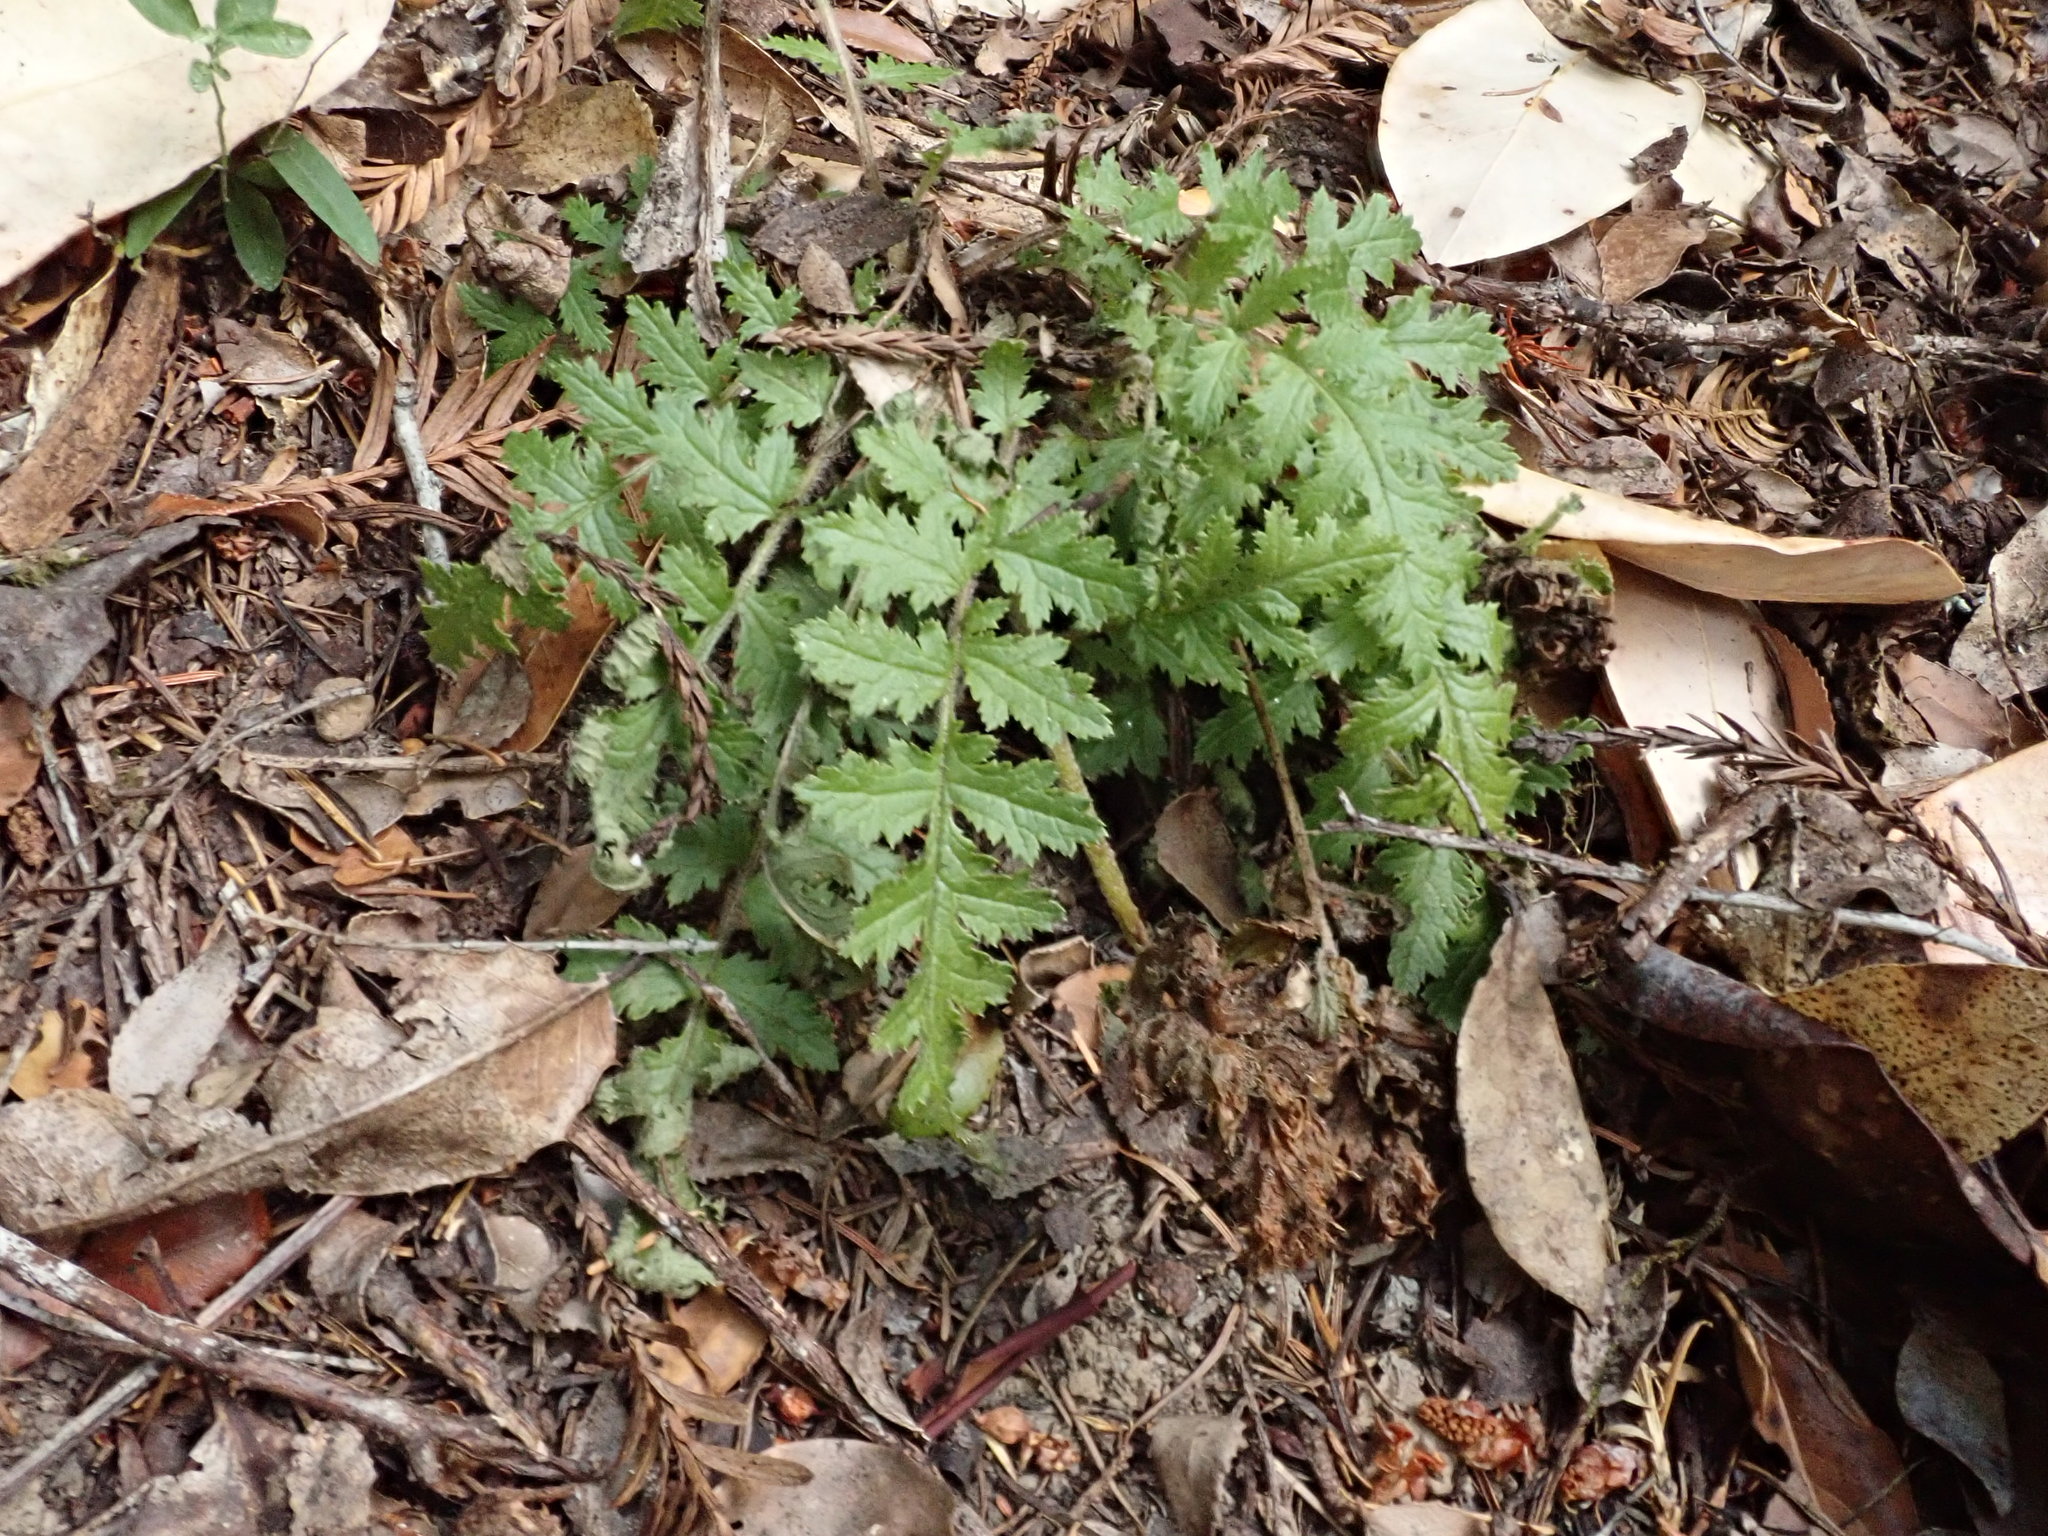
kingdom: Plantae
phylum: Tracheophyta
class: Magnoliopsida
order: Lamiales
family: Orobanchaceae
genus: Pedicularis
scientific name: Pedicularis dudleyi
